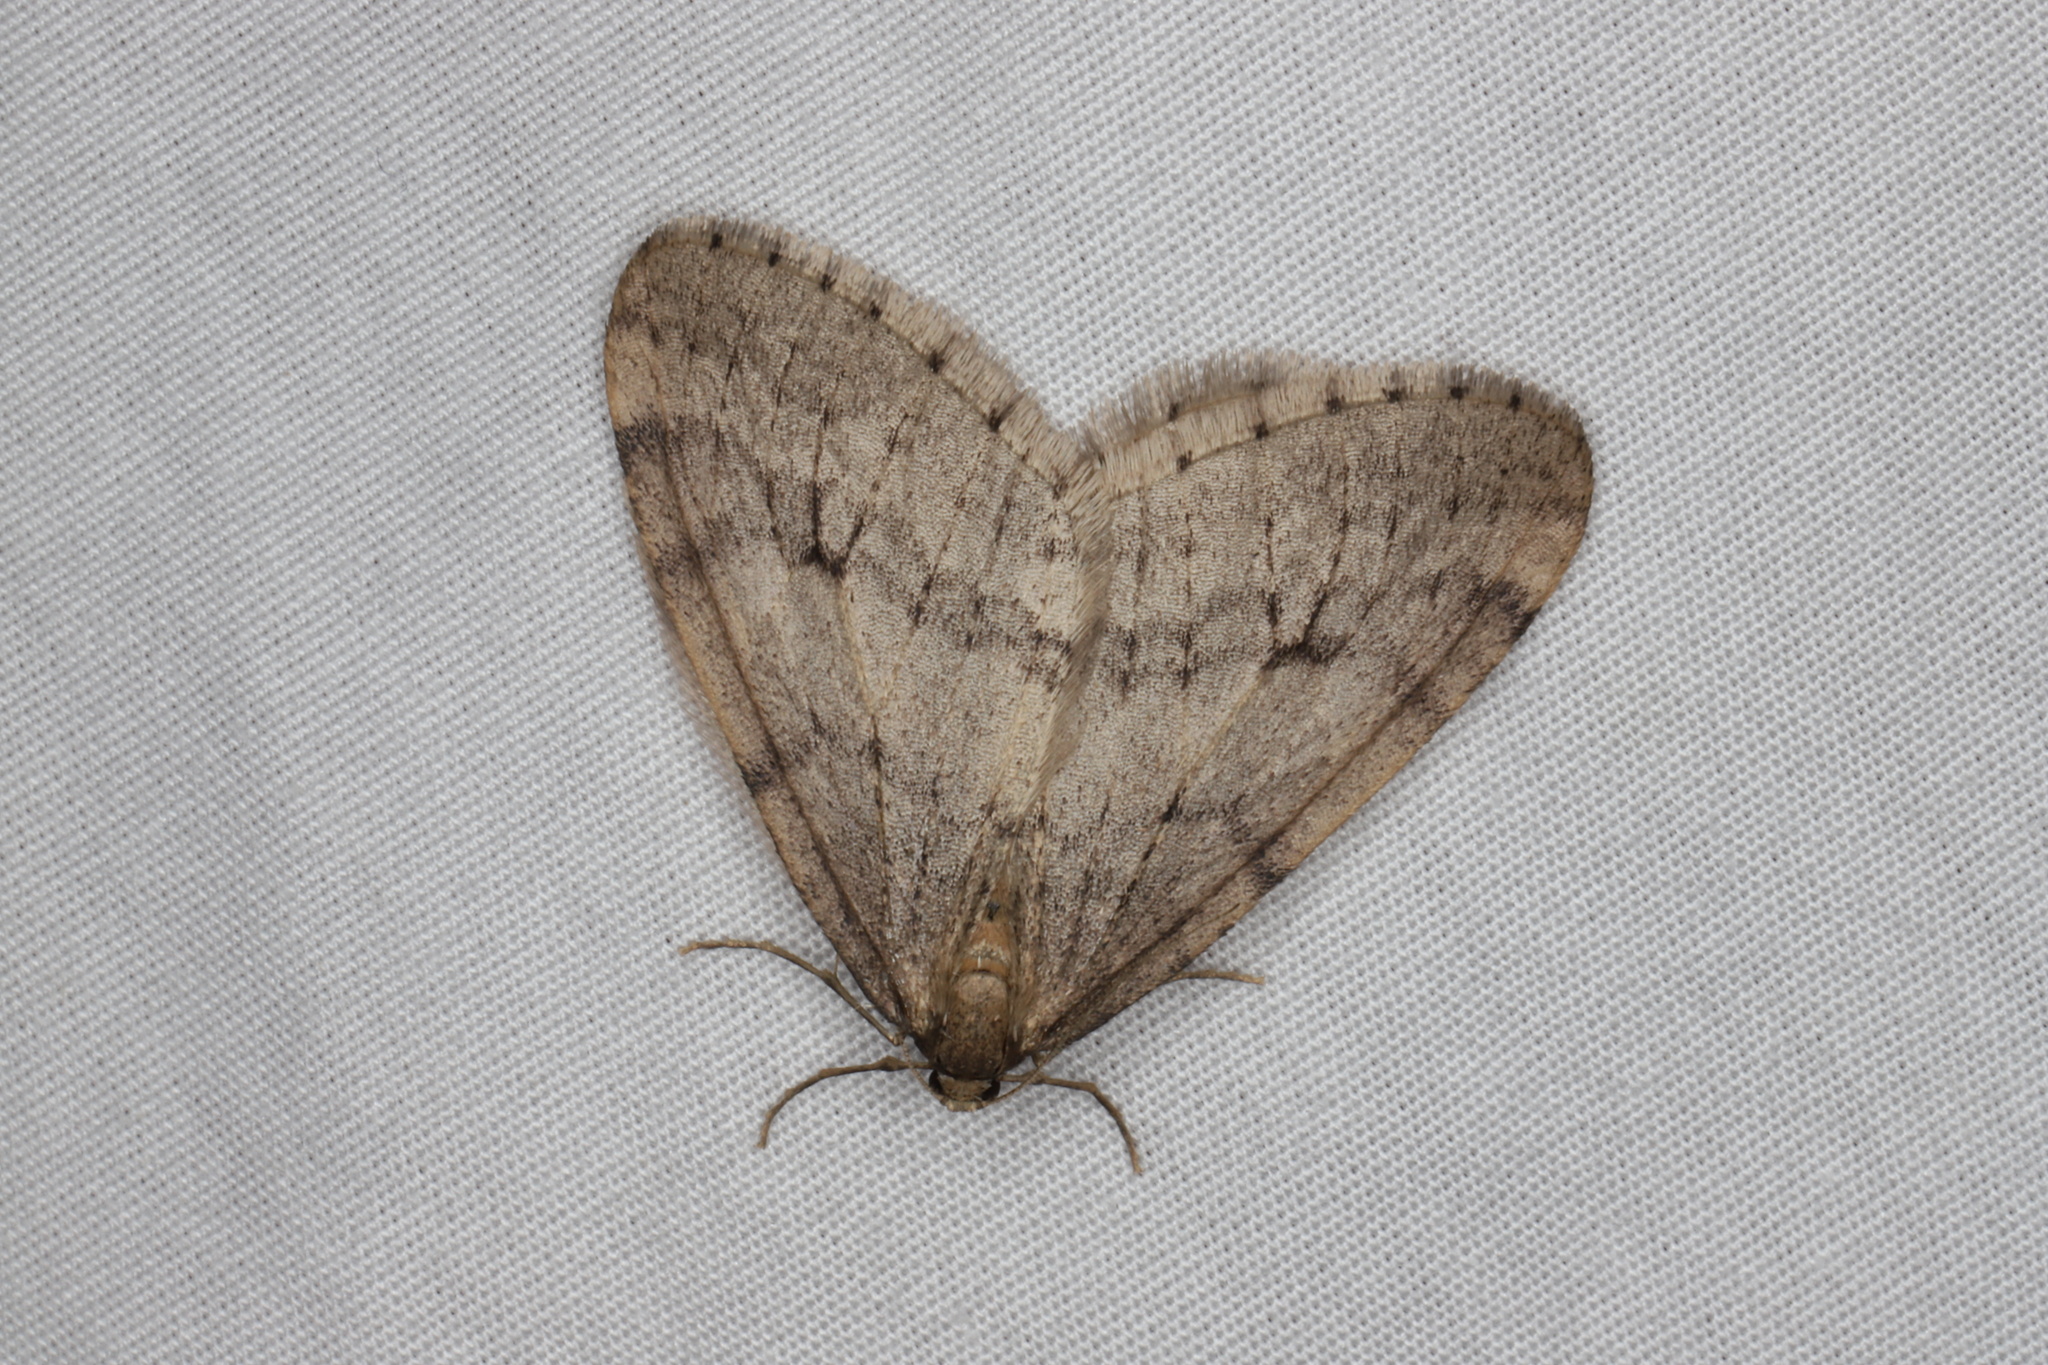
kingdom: Animalia
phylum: Arthropoda
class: Insecta
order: Lepidoptera
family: Geometridae
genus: Operophtera
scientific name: Operophtera bruceata
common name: Bruce spanworm
